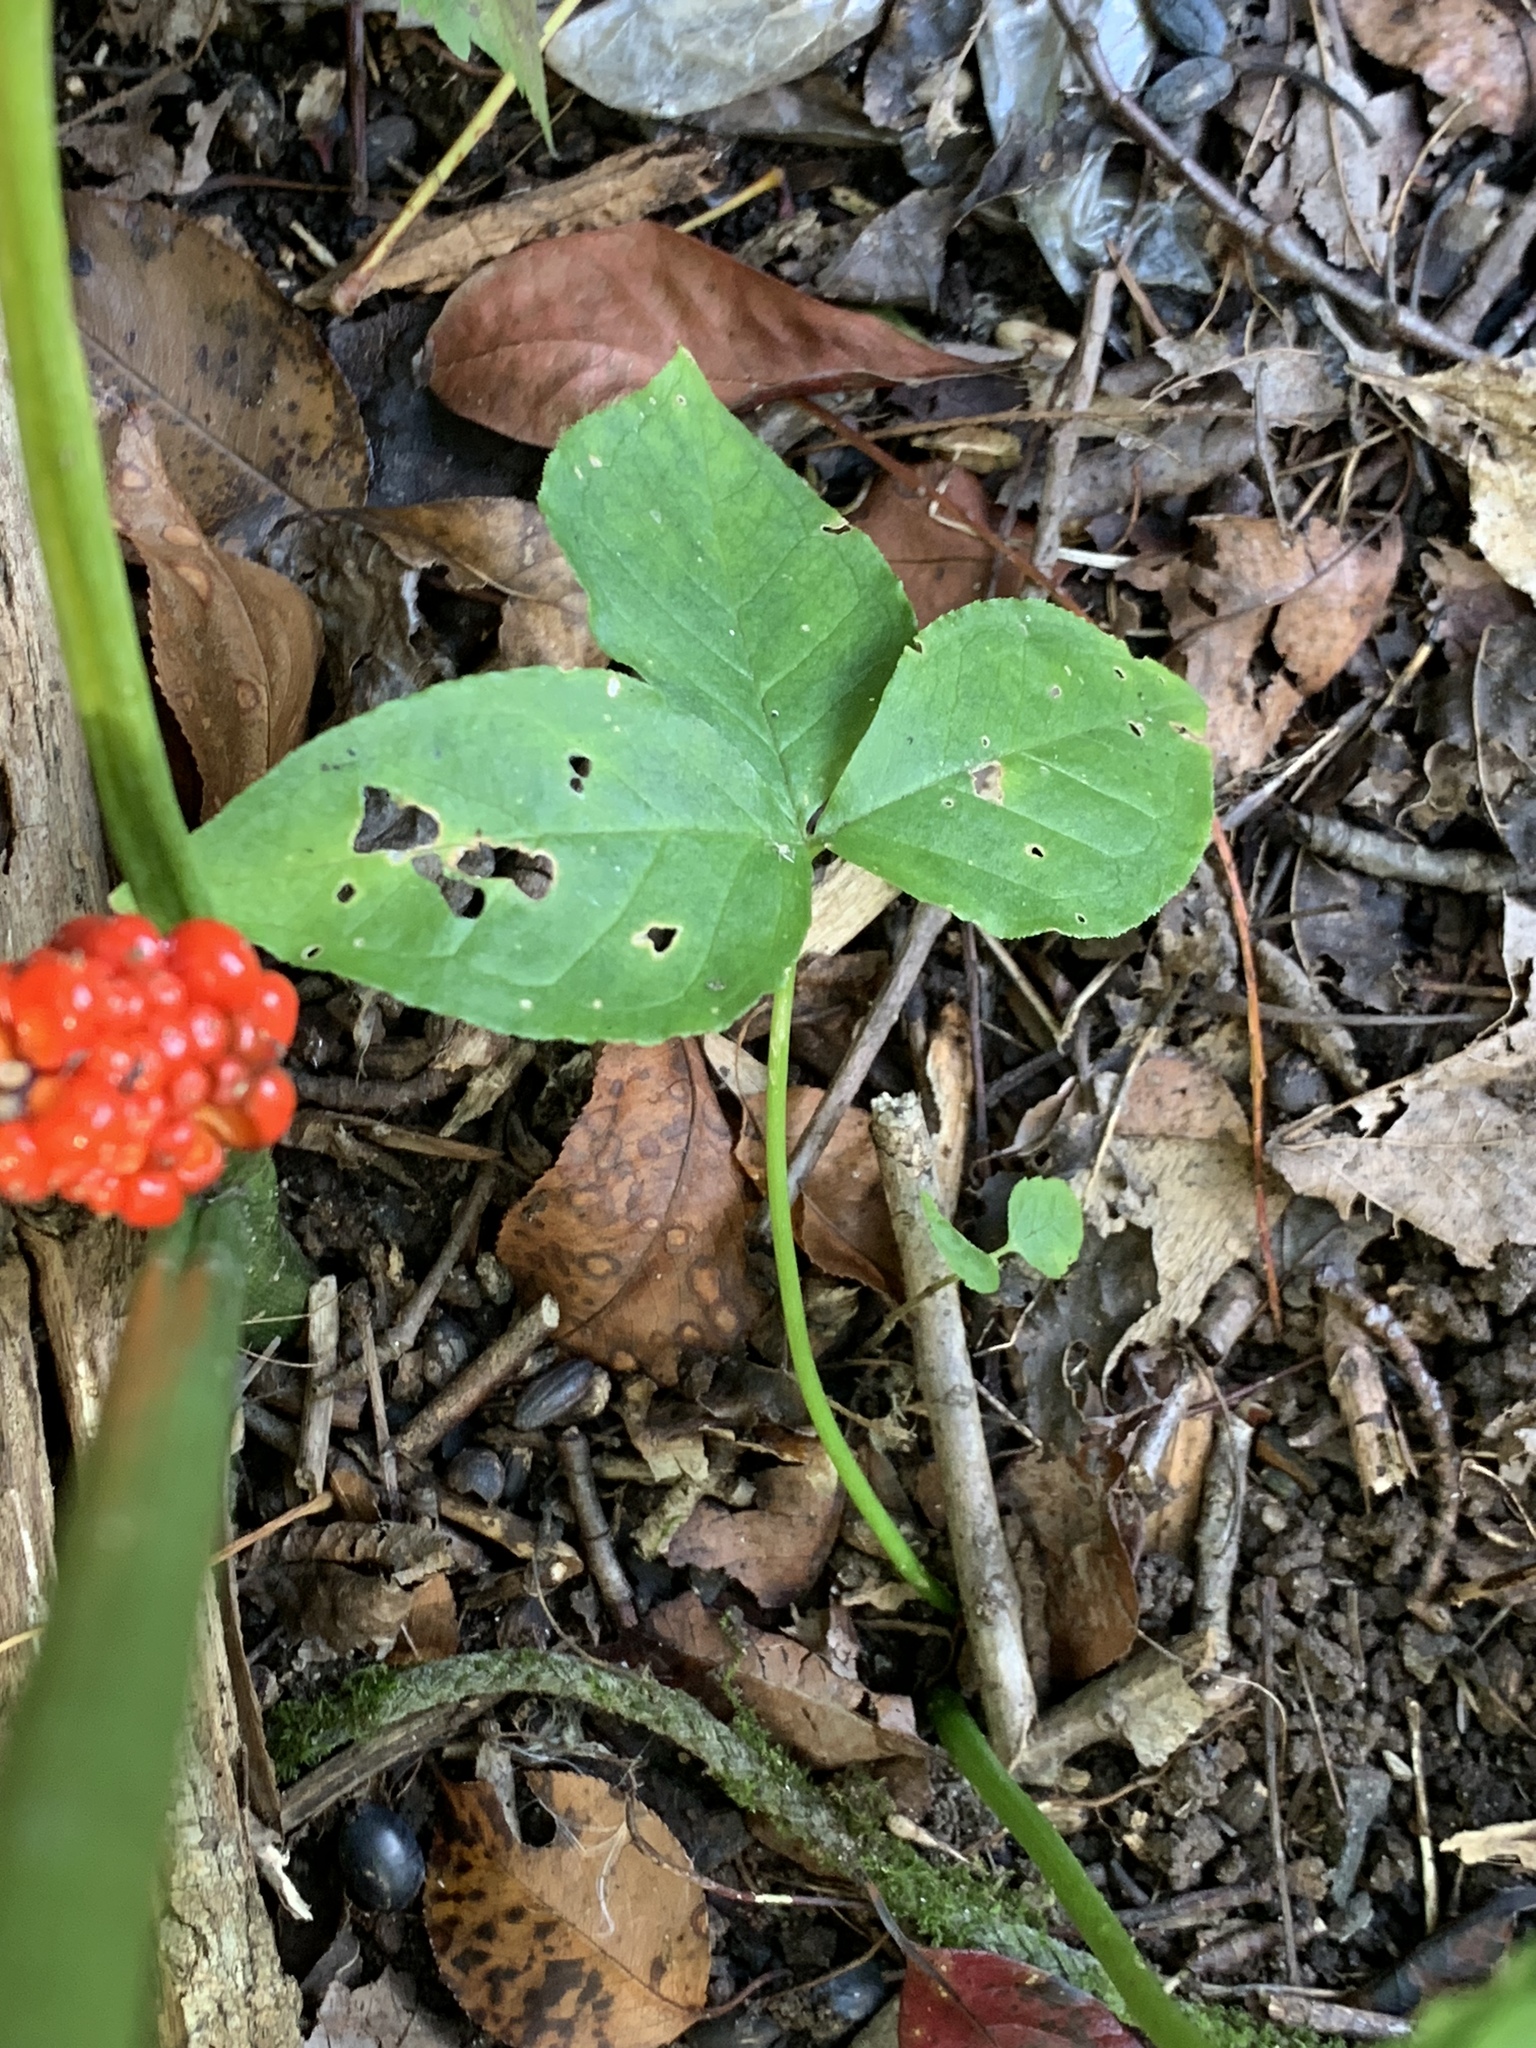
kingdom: Plantae
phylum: Tracheophyta
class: Liliopsida
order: Alismatales
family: Araceae
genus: Arisaema
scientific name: Arisaema triphyllum
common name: Jack-in-the-pulpit
